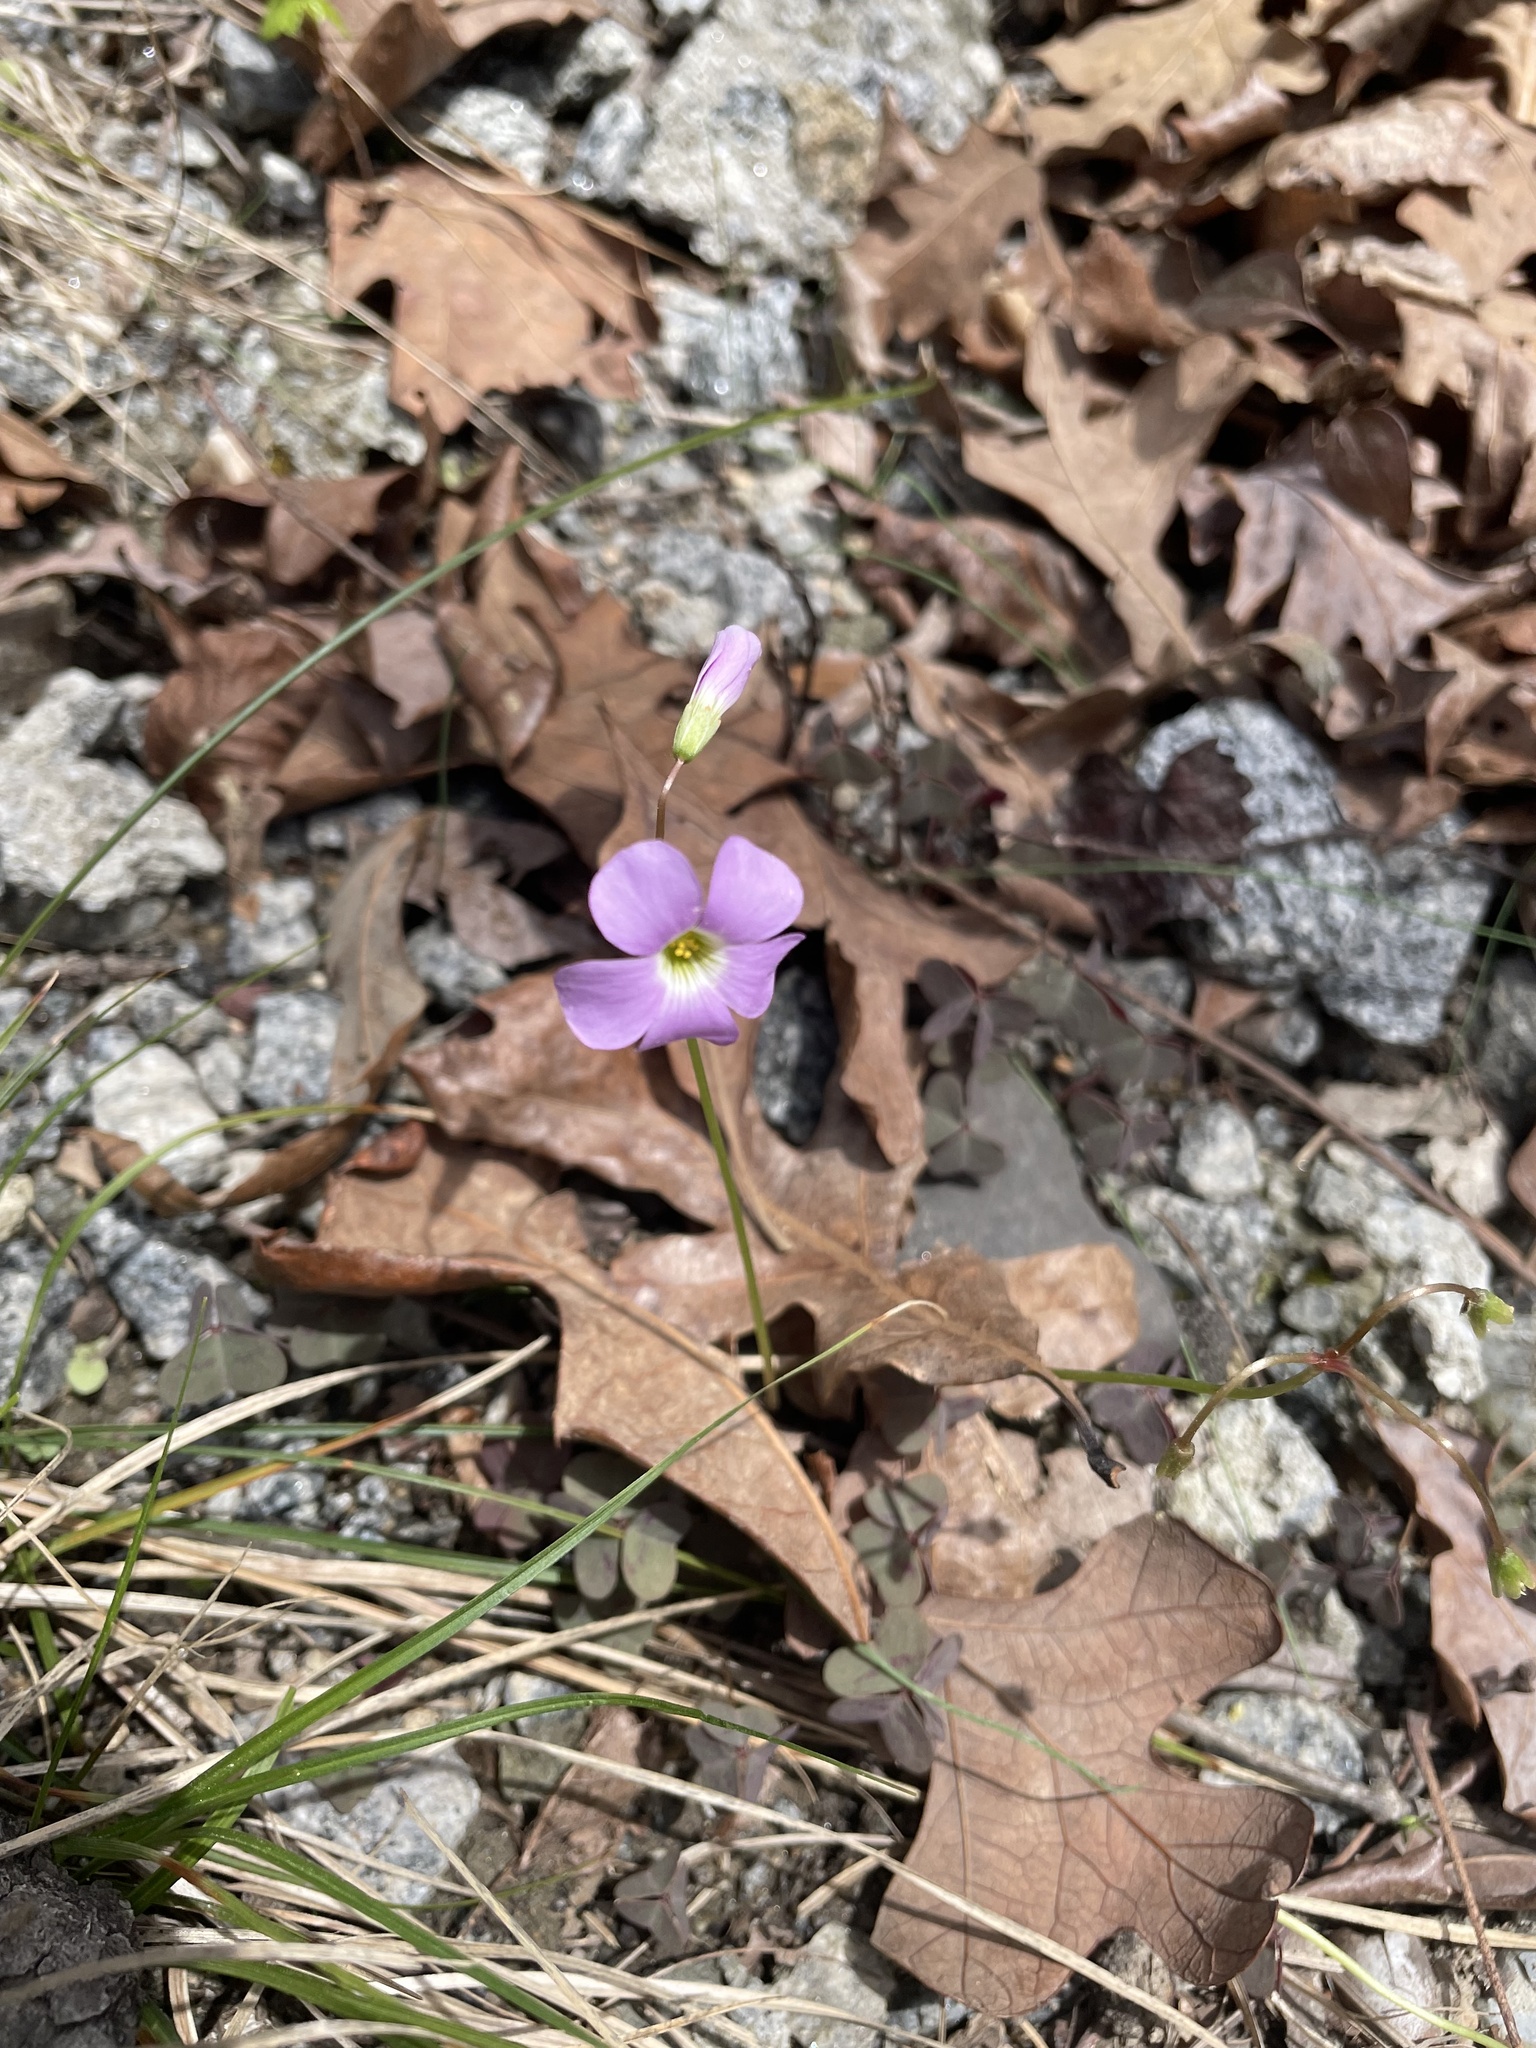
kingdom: Plantae
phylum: Tracheophyta
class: Magnoliopsida
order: Oxalidales
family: Oxalidaceae
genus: Oxalis
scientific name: Oxalis violacea
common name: Violet wood-sorrel
